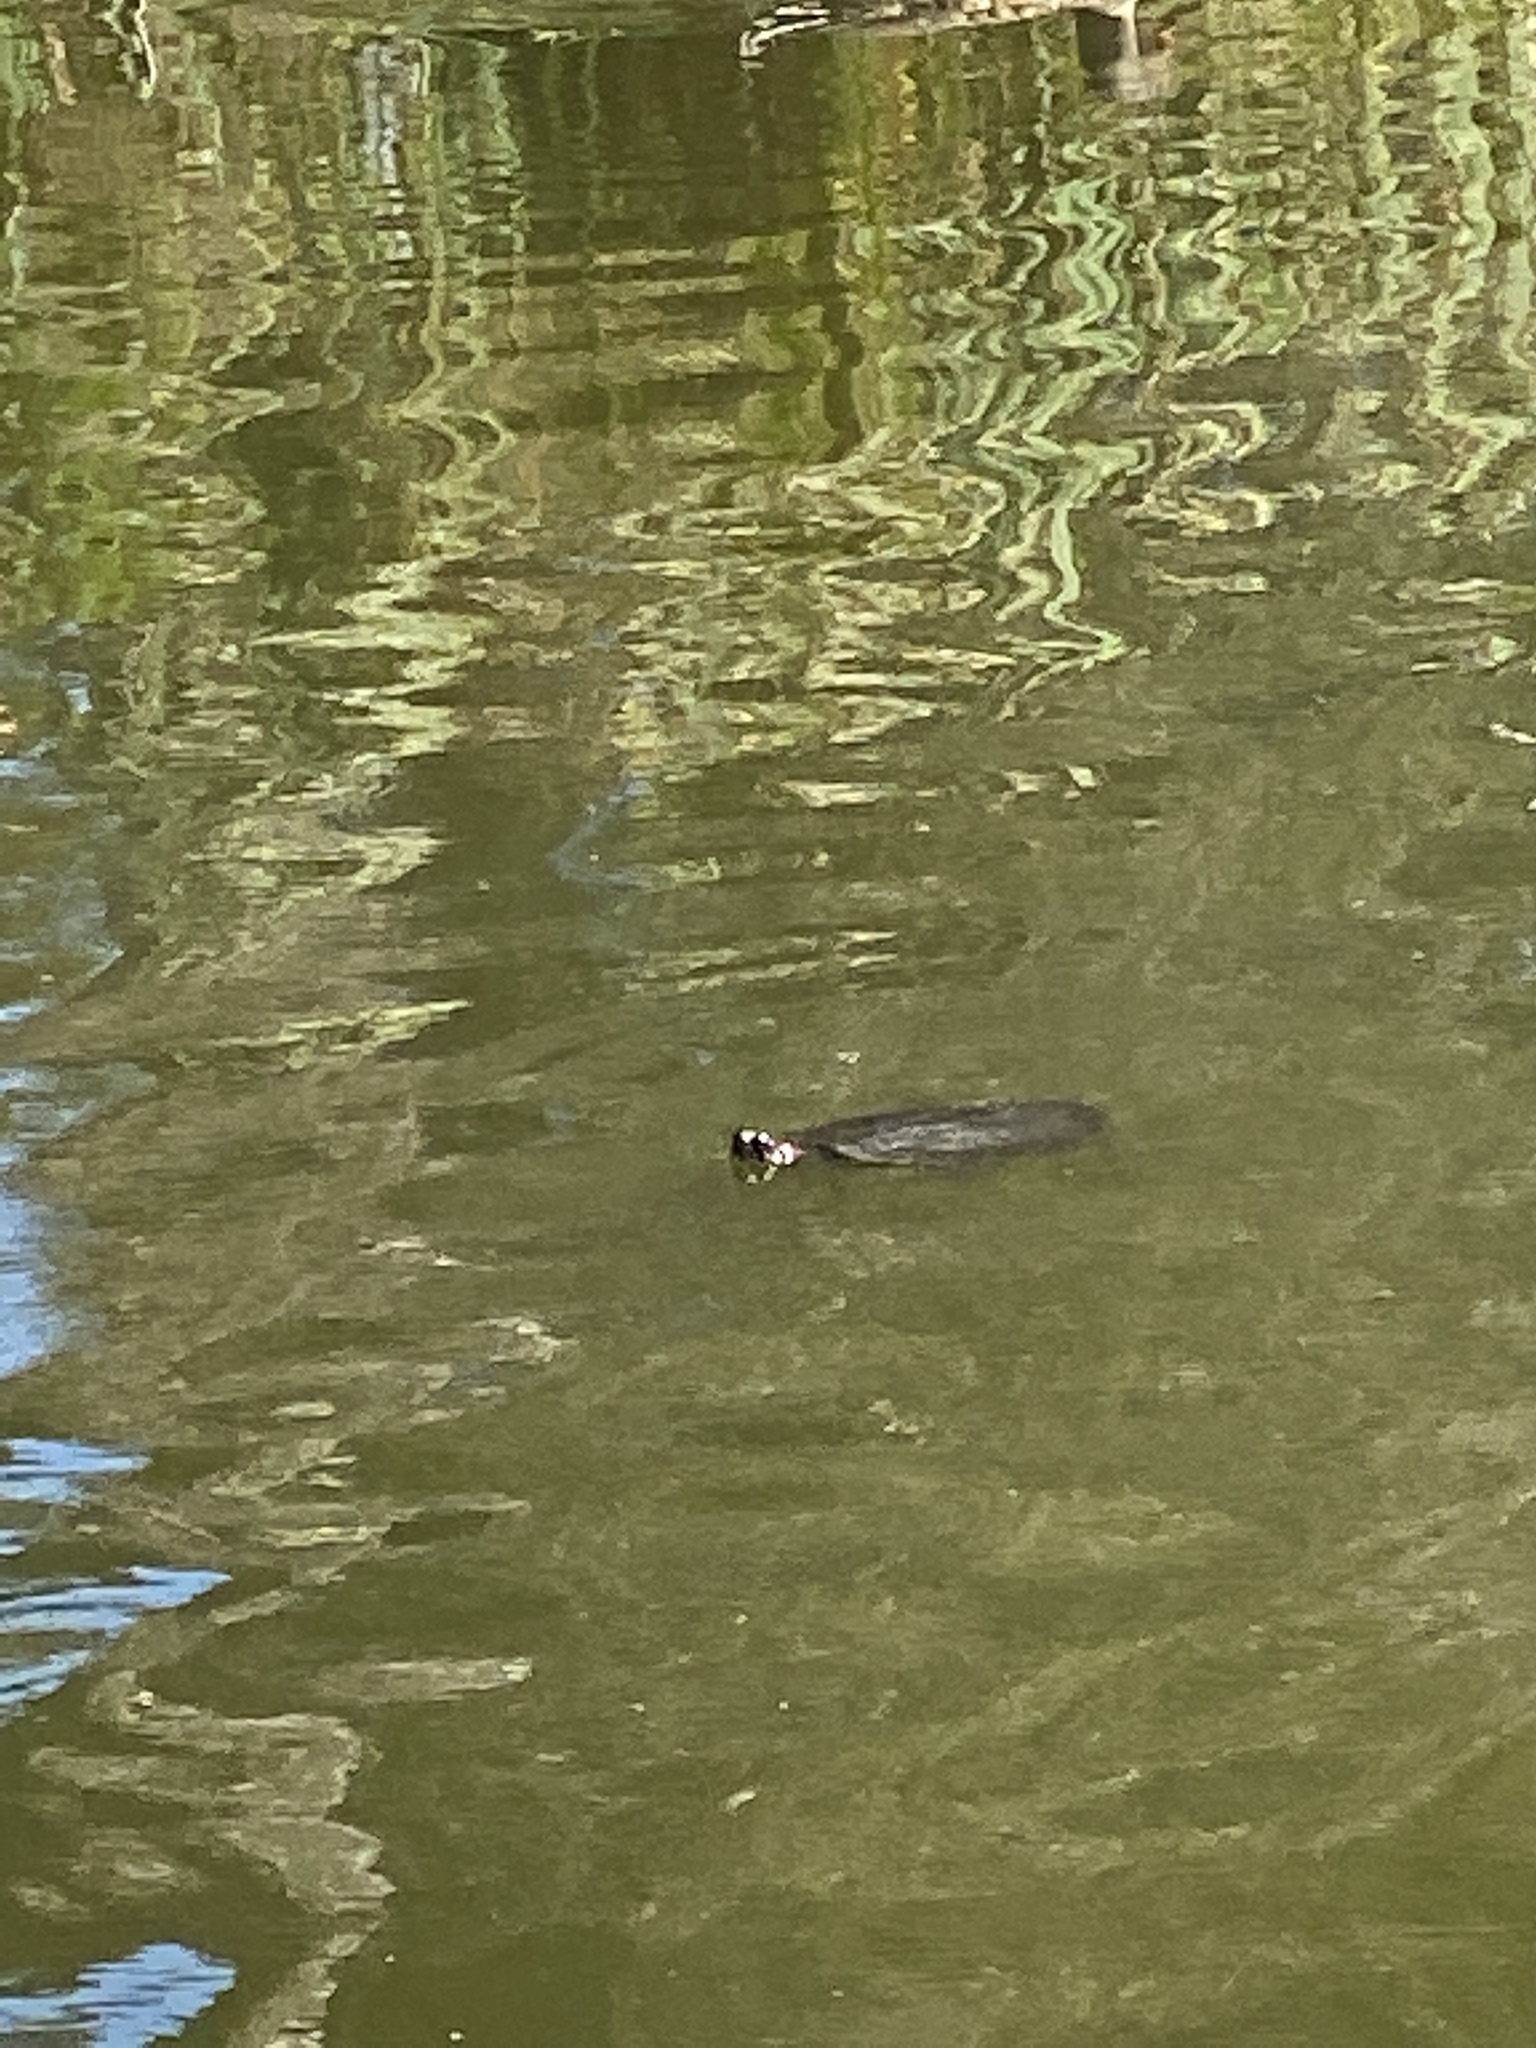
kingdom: Animalia
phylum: Chordata
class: Testudines
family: Emydidae
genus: Trachemys
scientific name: Trachemys scripta
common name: Slider
